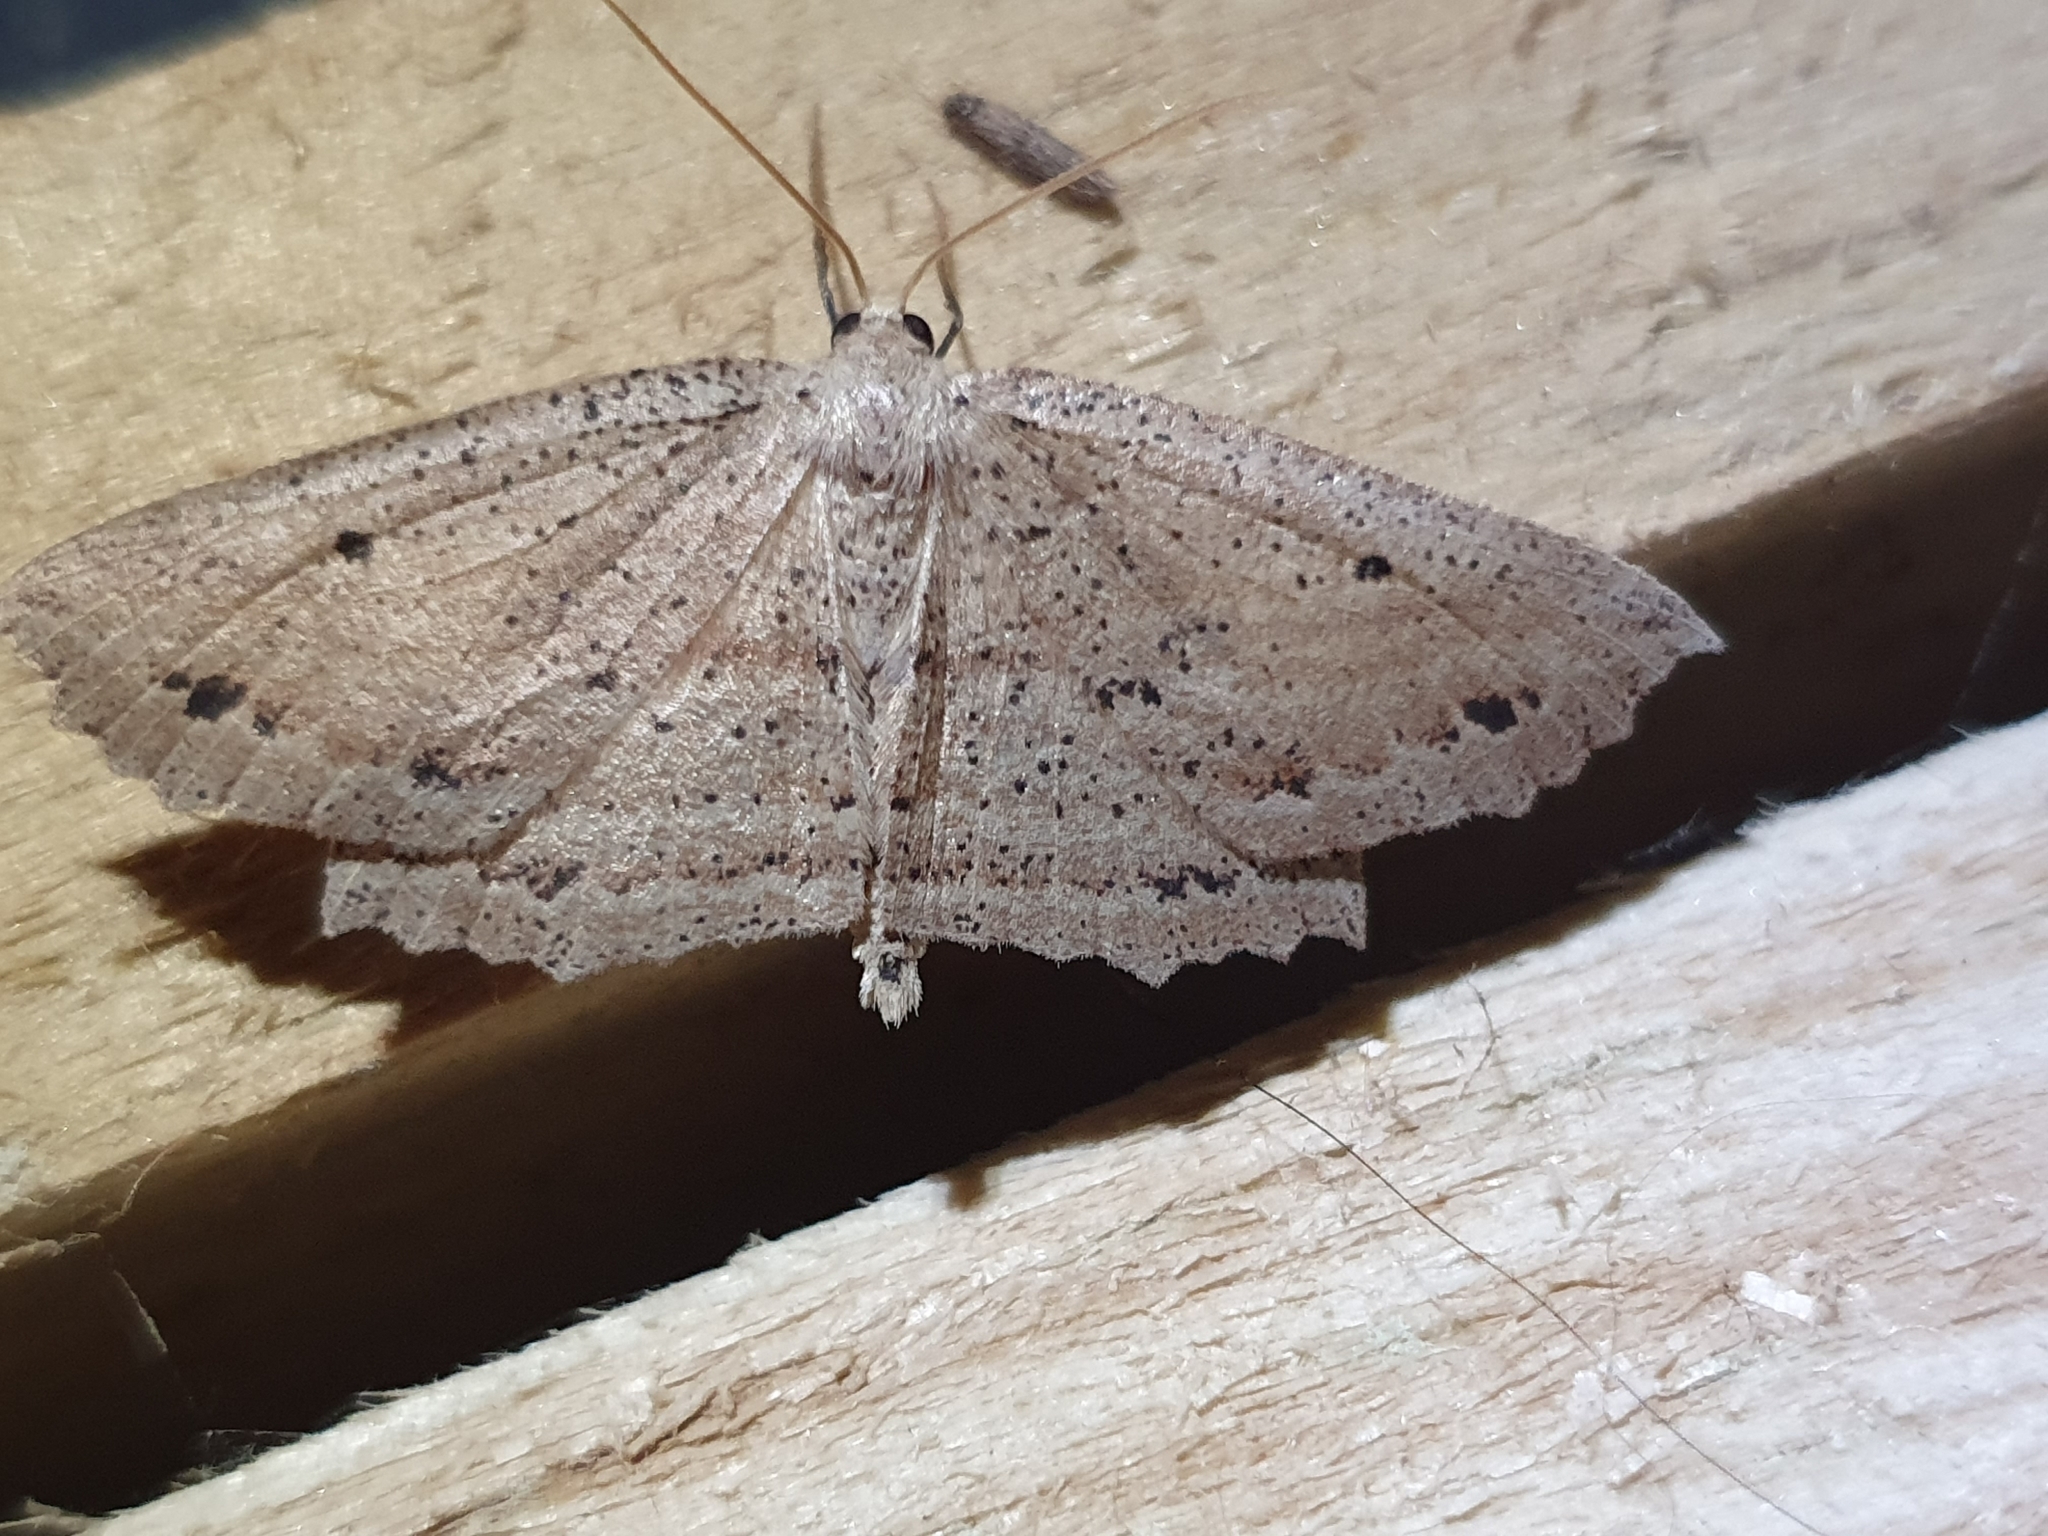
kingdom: Animalia
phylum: Arthropoda
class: Insecta
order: Lepidoptera
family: Geometridae
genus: Xyridacma
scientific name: Xyridacma veronicae
